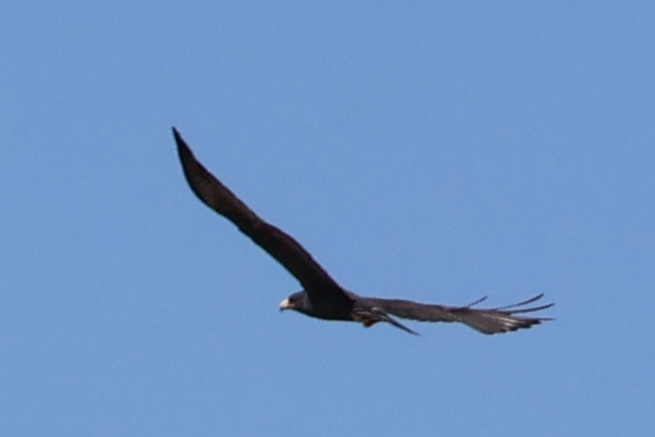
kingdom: Animalia
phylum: Chordata
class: Aves
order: Accipitriformes
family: Accipitridae
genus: Buteo
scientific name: Buteo albonotatus
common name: Zone-tailed hawk
